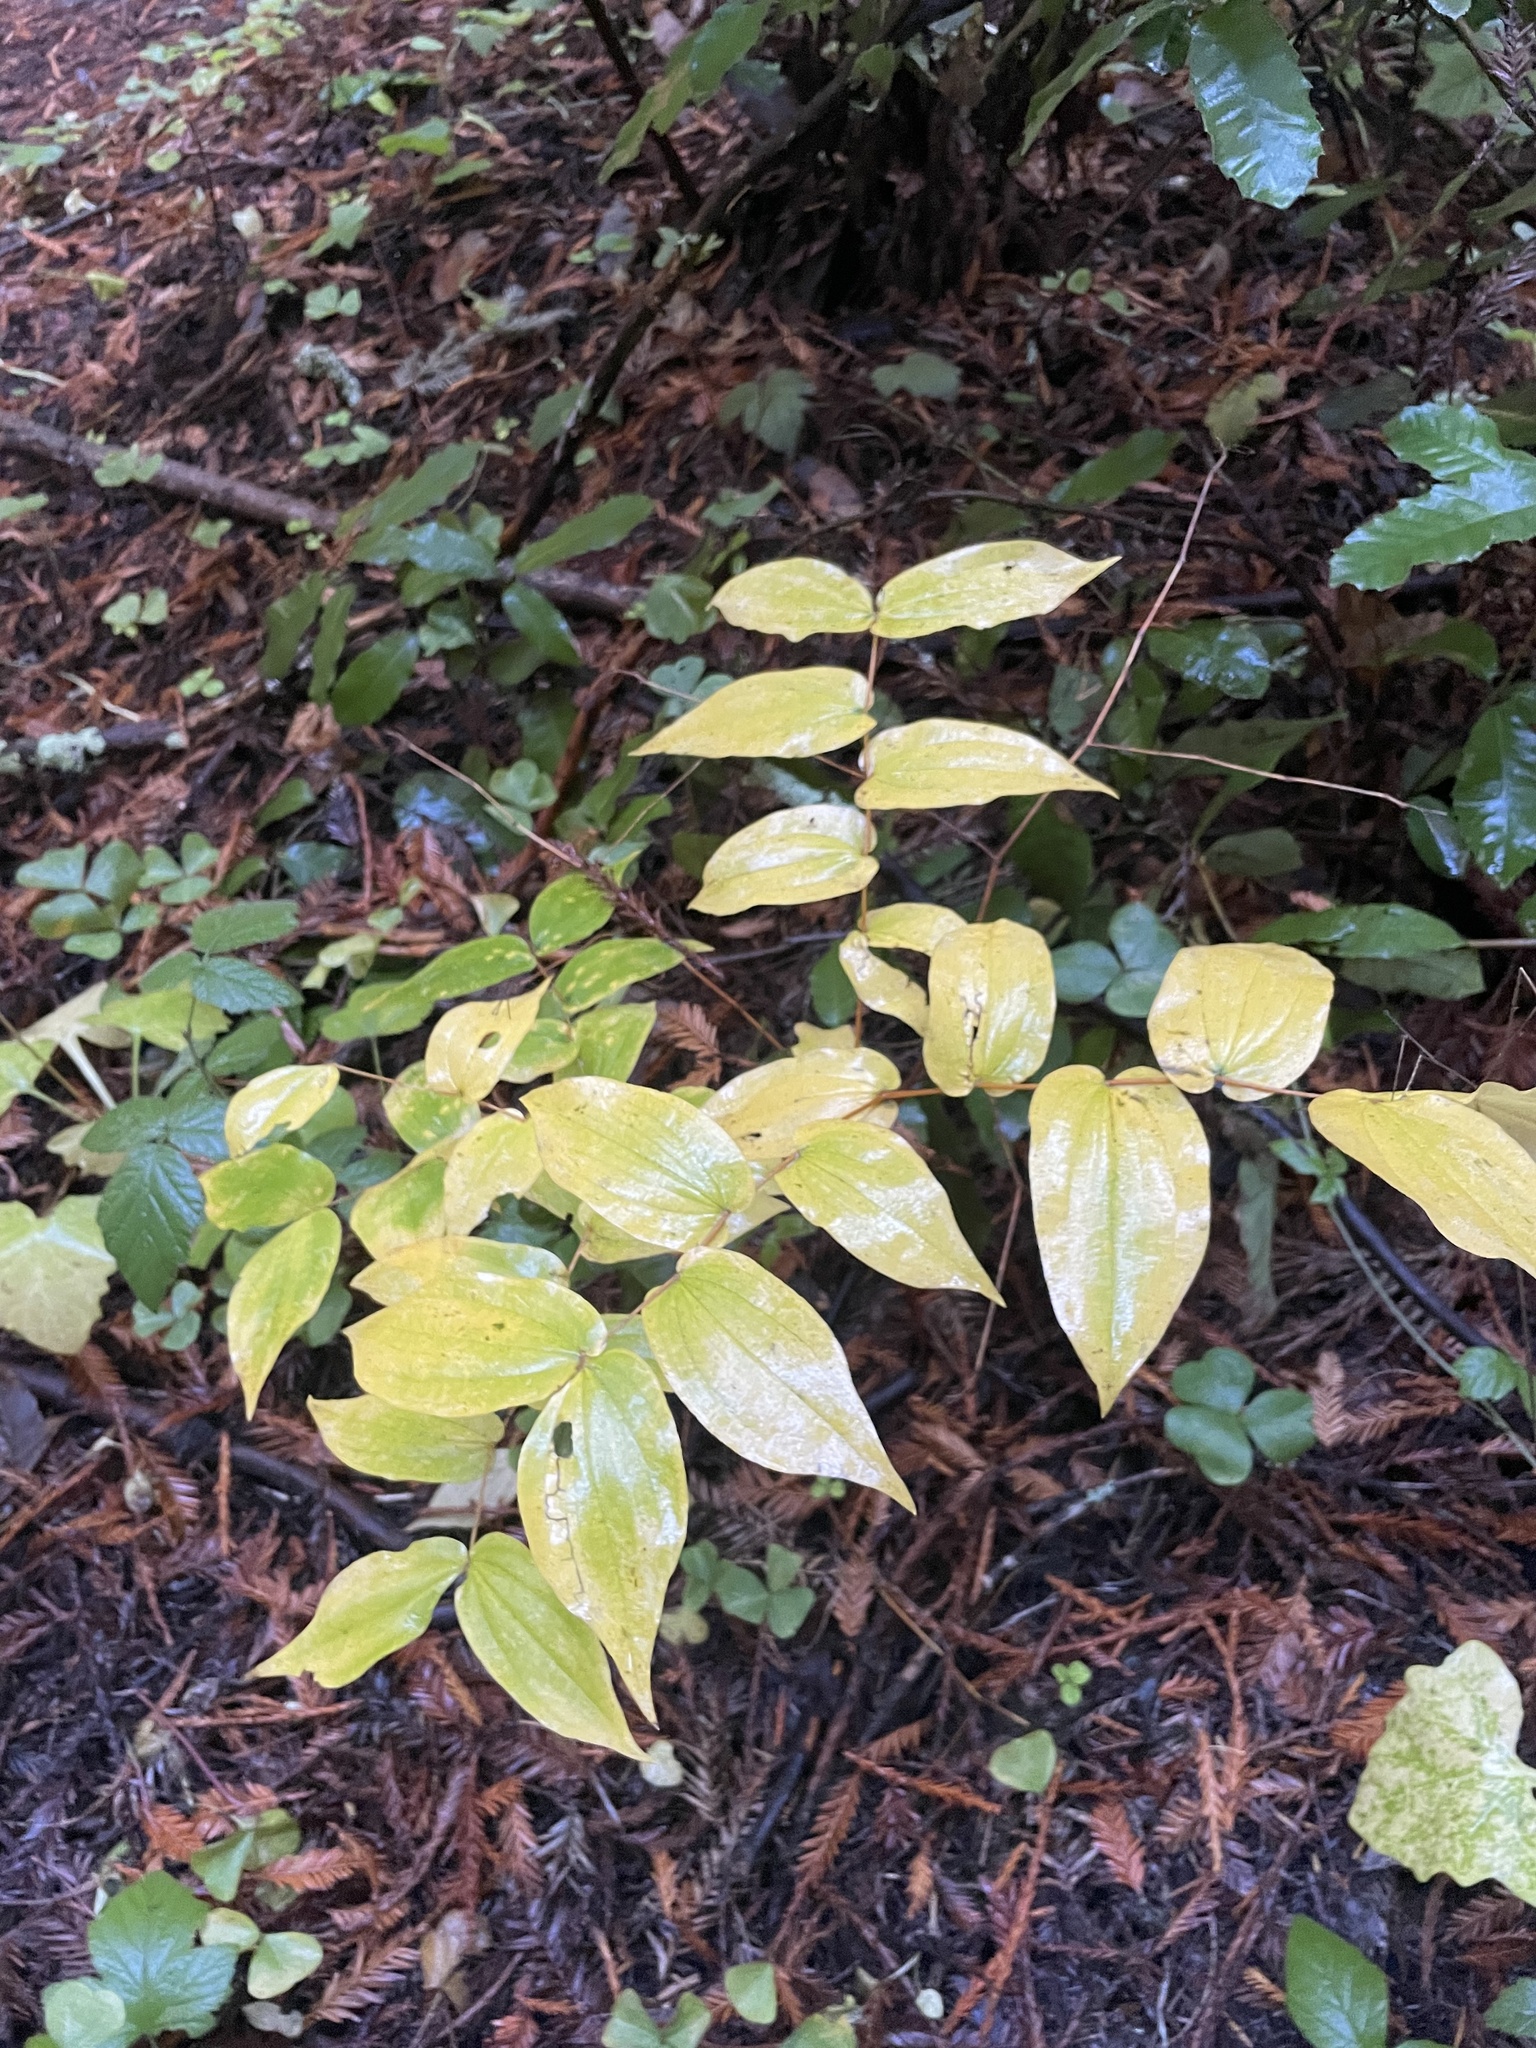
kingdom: Plantae
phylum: Tracheophyta
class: Liliopsida
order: Liliales
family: Liliaceae
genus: Prosartes
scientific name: Prosartes hookeri
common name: Fairy-bells
